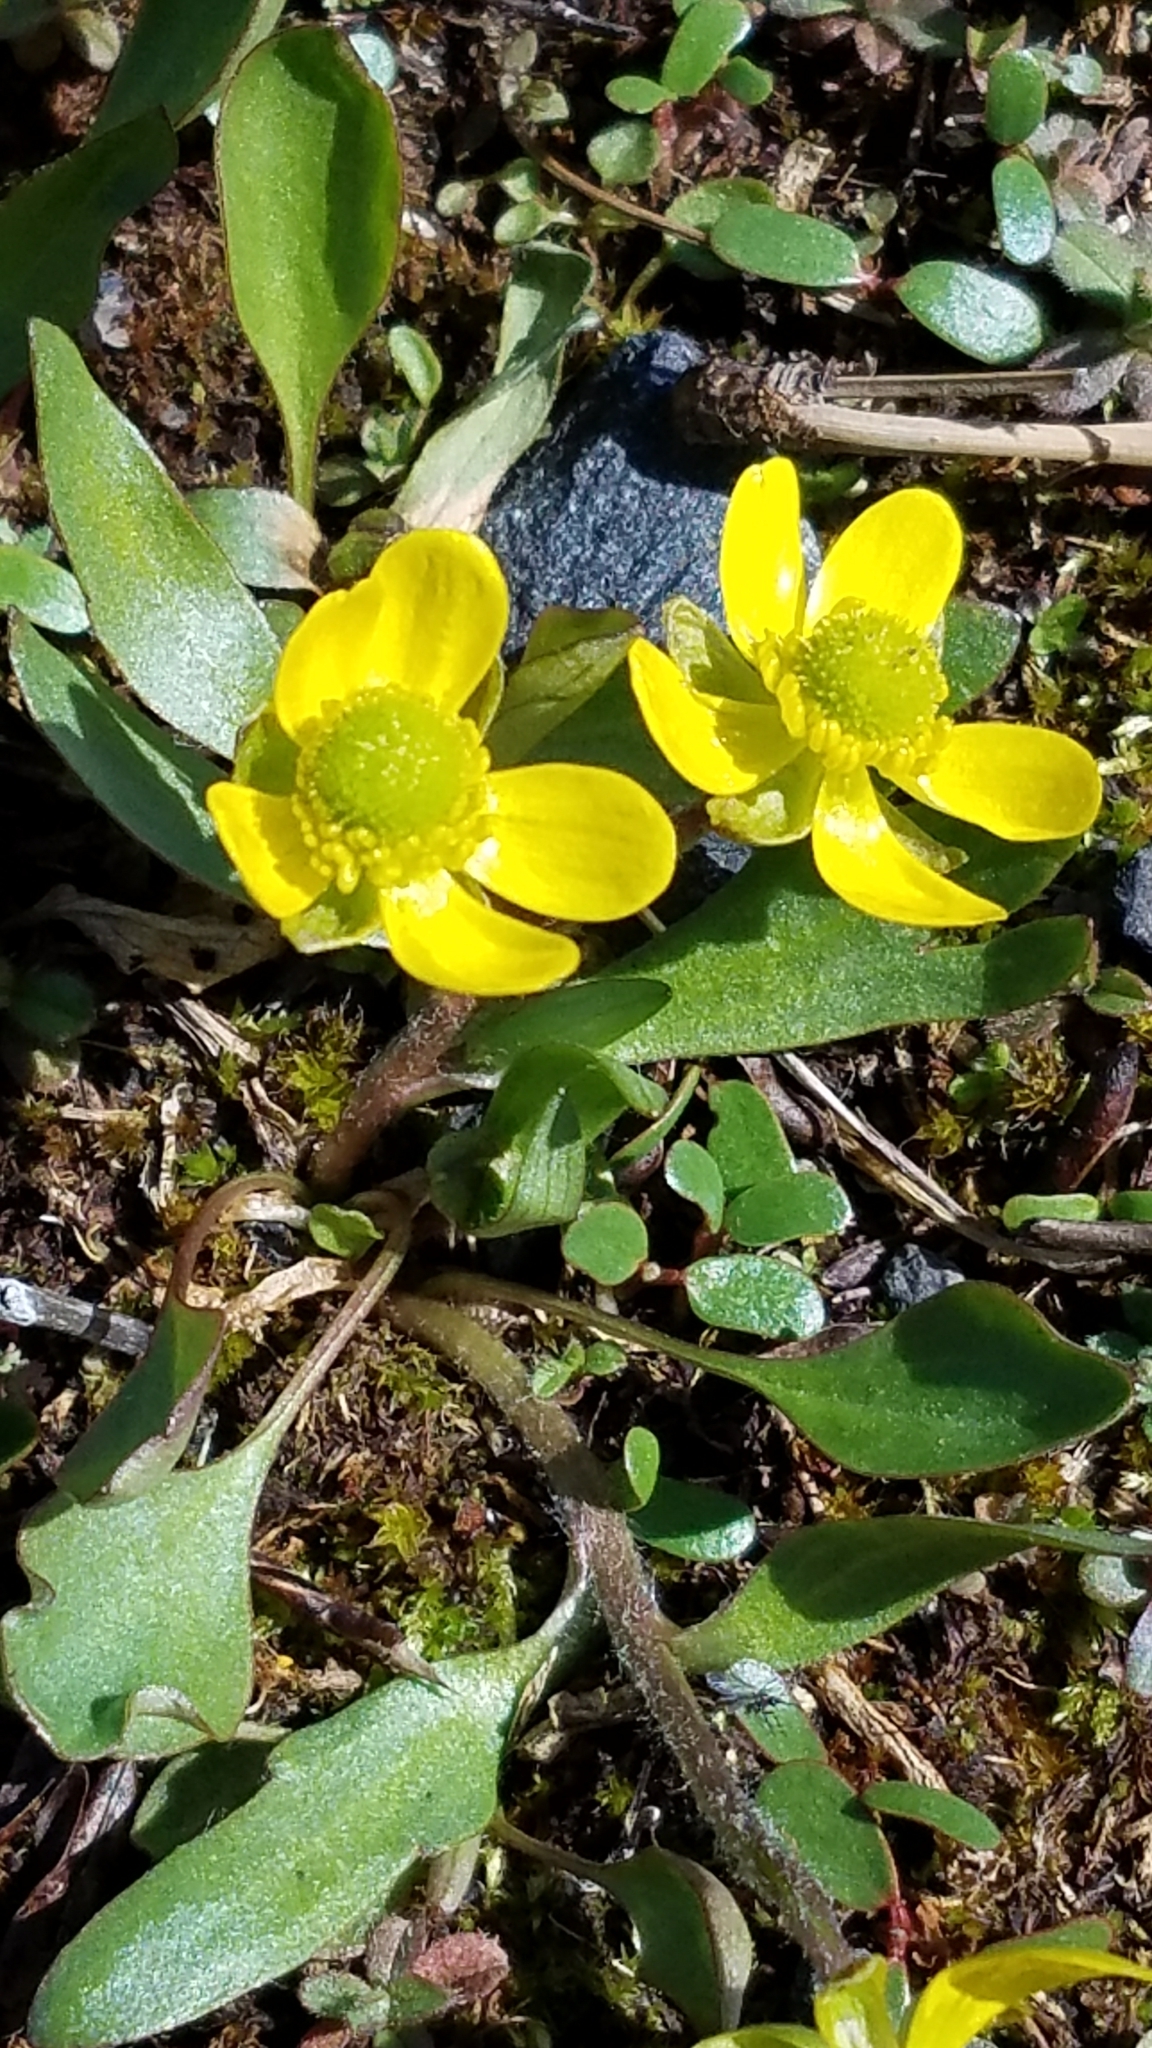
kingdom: Plantae
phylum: Tracheophyta
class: Magnoliopsida
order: Ranunculales
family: Ranunculaceae
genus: Ranunculus
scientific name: Ranunculus glaberrimus
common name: Sagebrush buttercup
